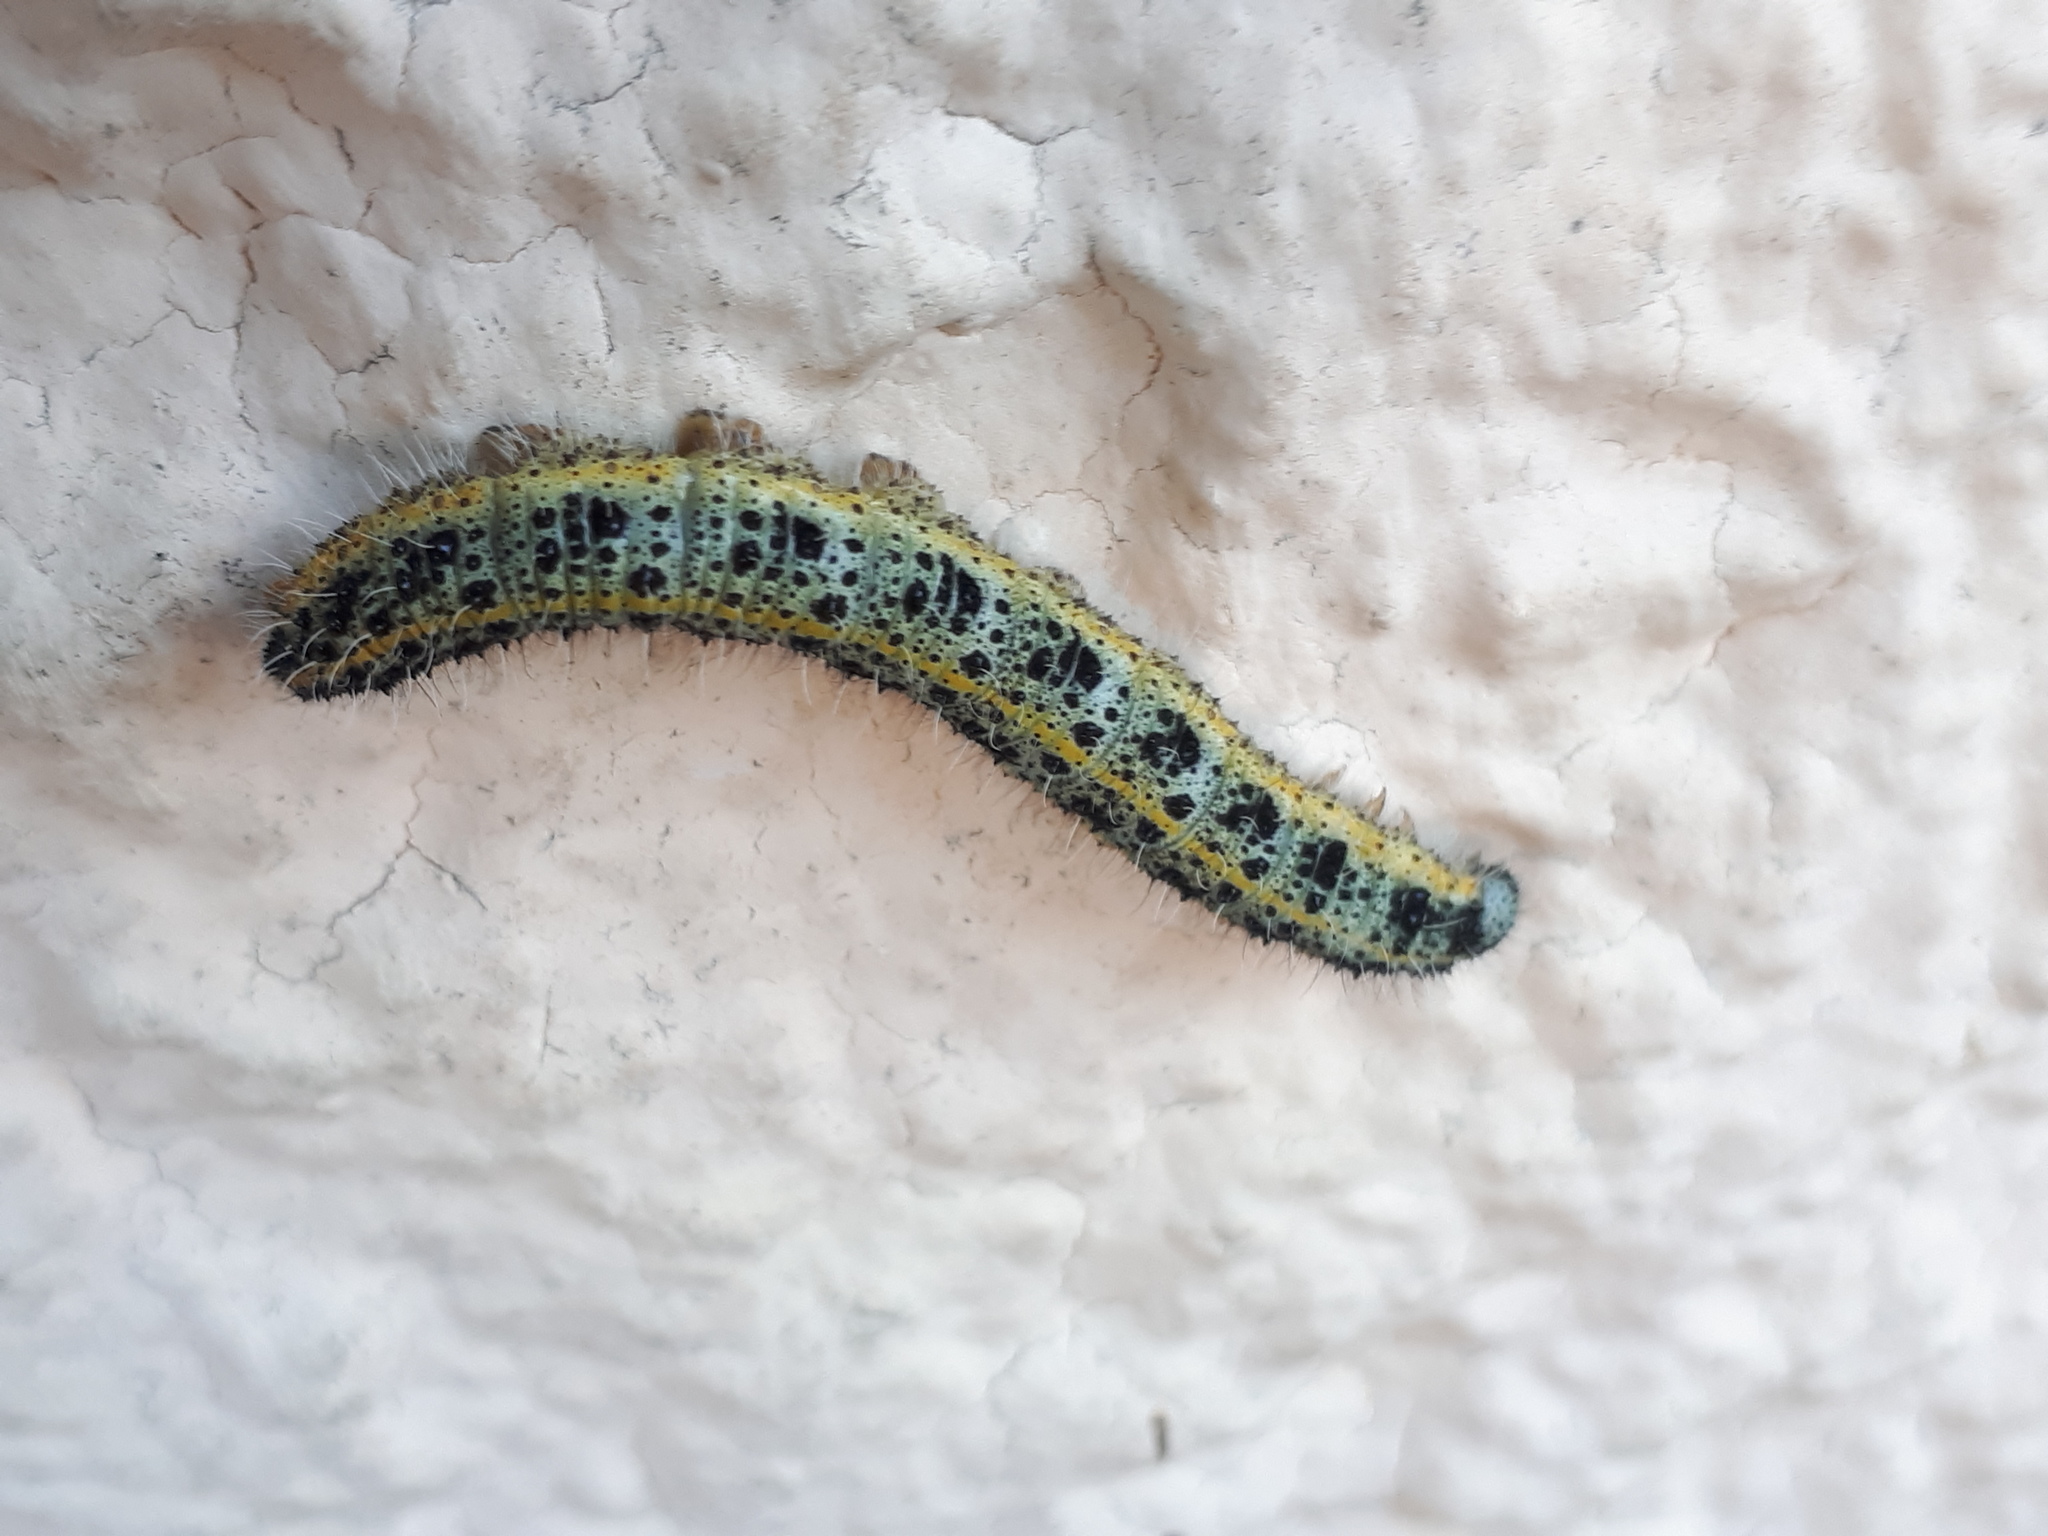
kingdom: Animalia
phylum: Arthropoda
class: Insecta
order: Lepidoptera
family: Pieridae
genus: Pieris
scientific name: Pieris brassicae
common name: Large white
